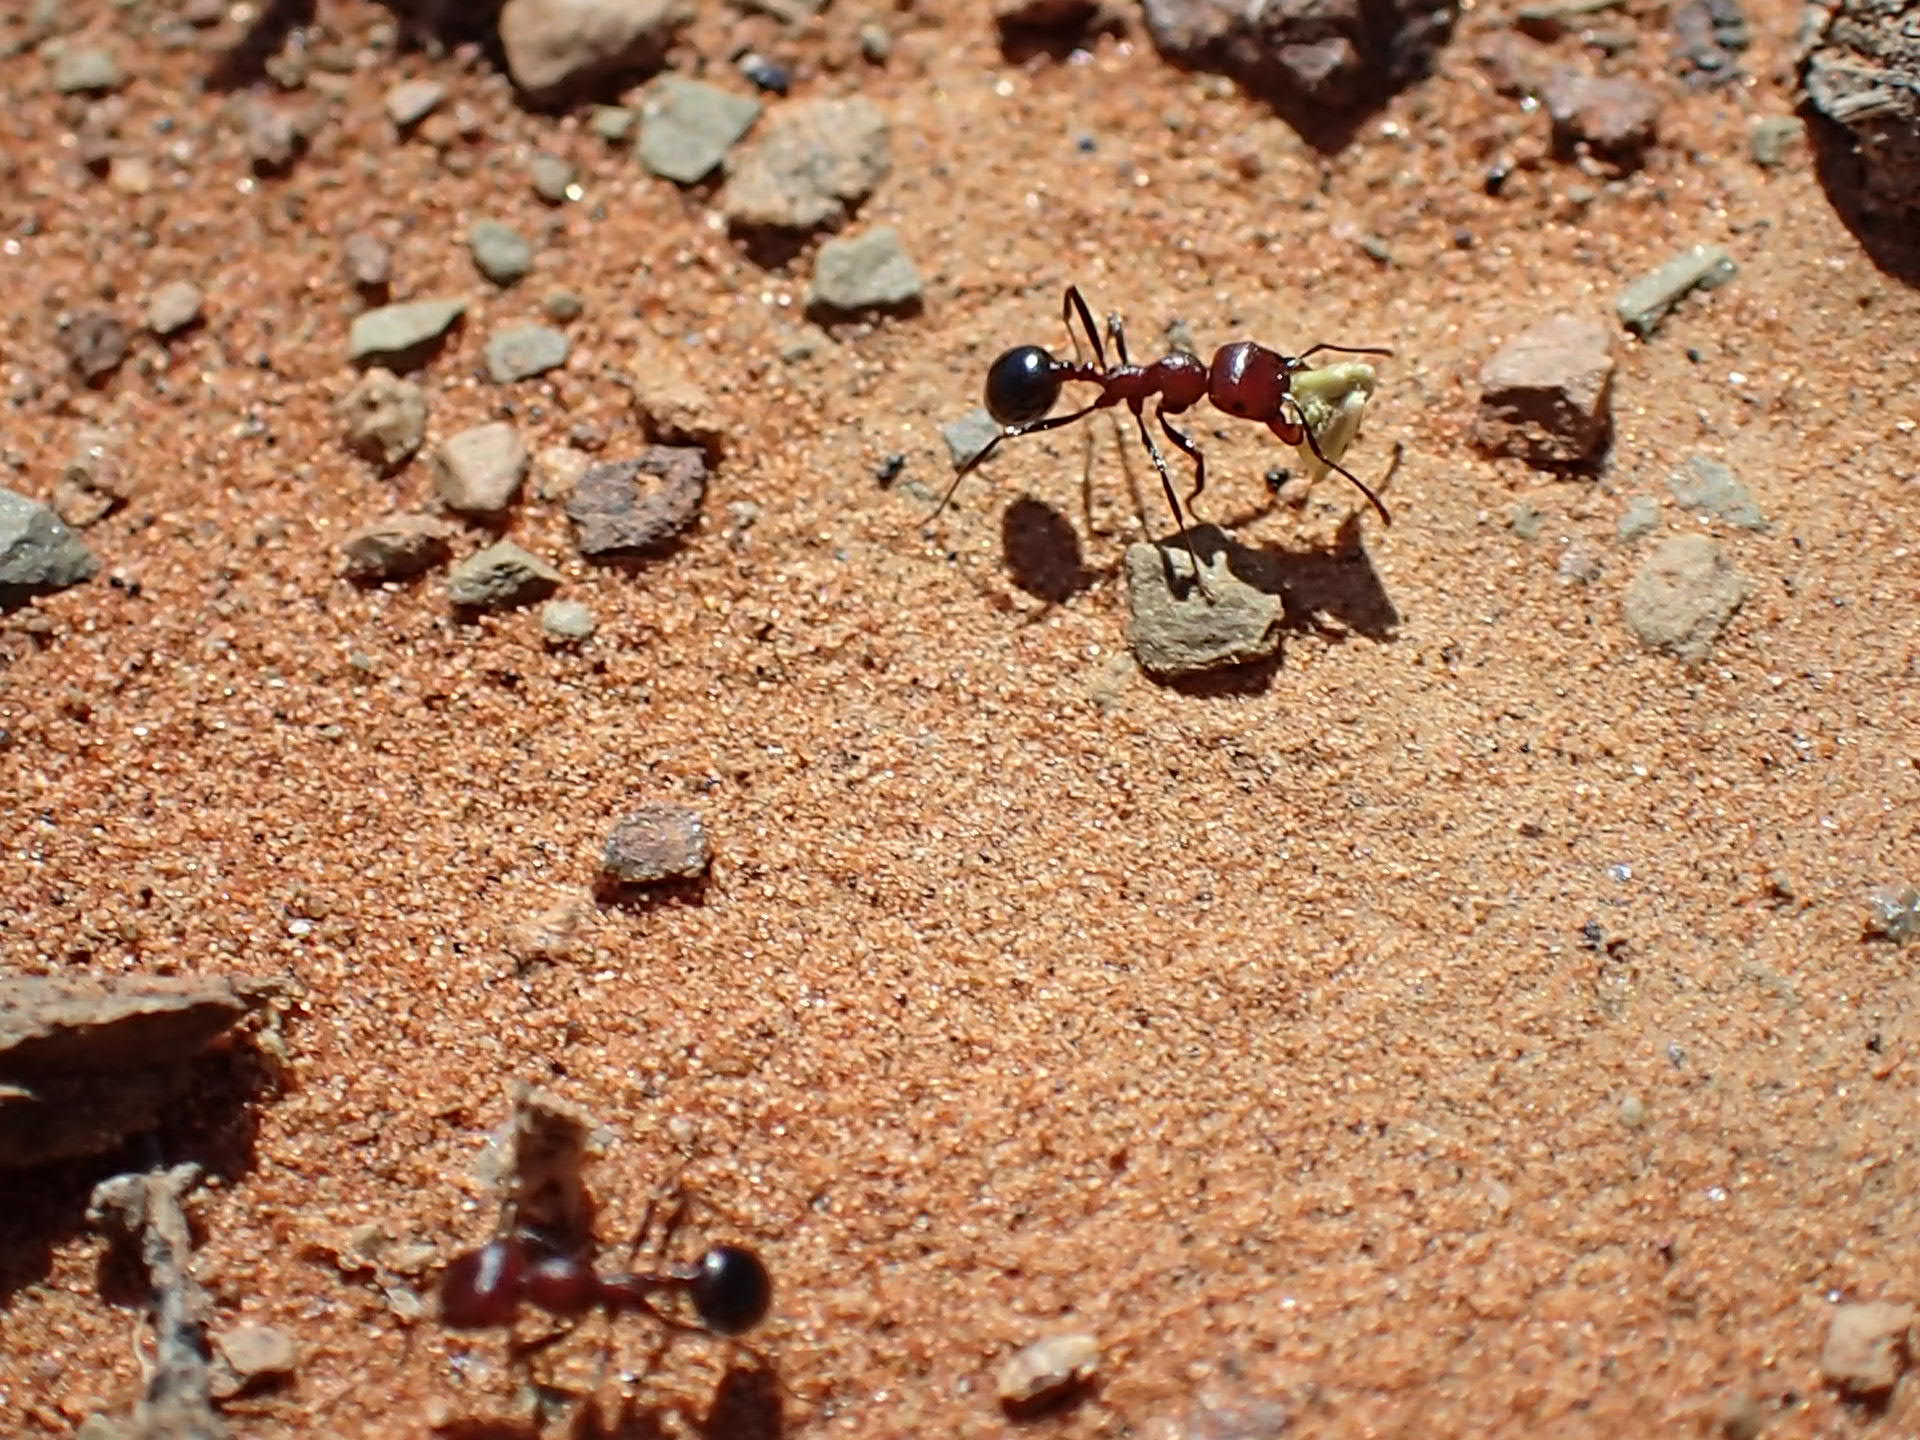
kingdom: Animalia
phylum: Arthropoda
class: Insecta
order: Hymenoptera
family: Formicidae
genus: Messor
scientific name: Messor capensis
